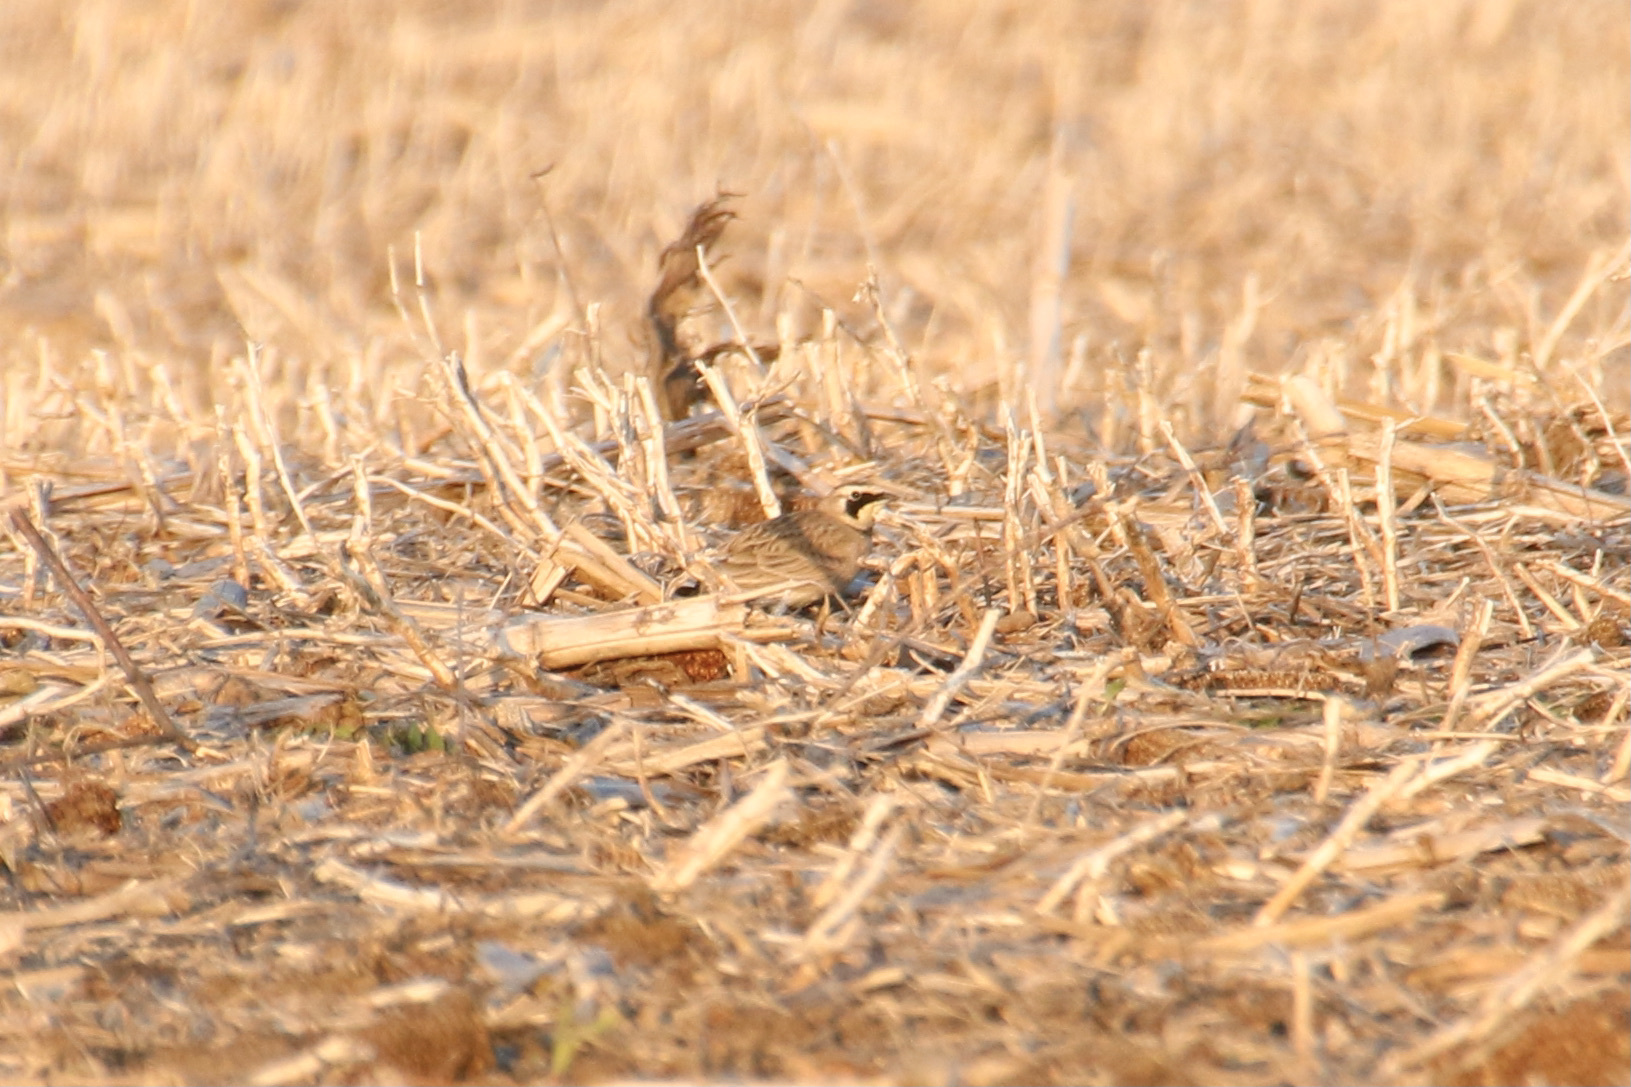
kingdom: Animalia
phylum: Chordata
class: Aves
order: Passeriformes
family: Alaudidae
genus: Eremophila
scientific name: Eremophila alpestris
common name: Horned lark
